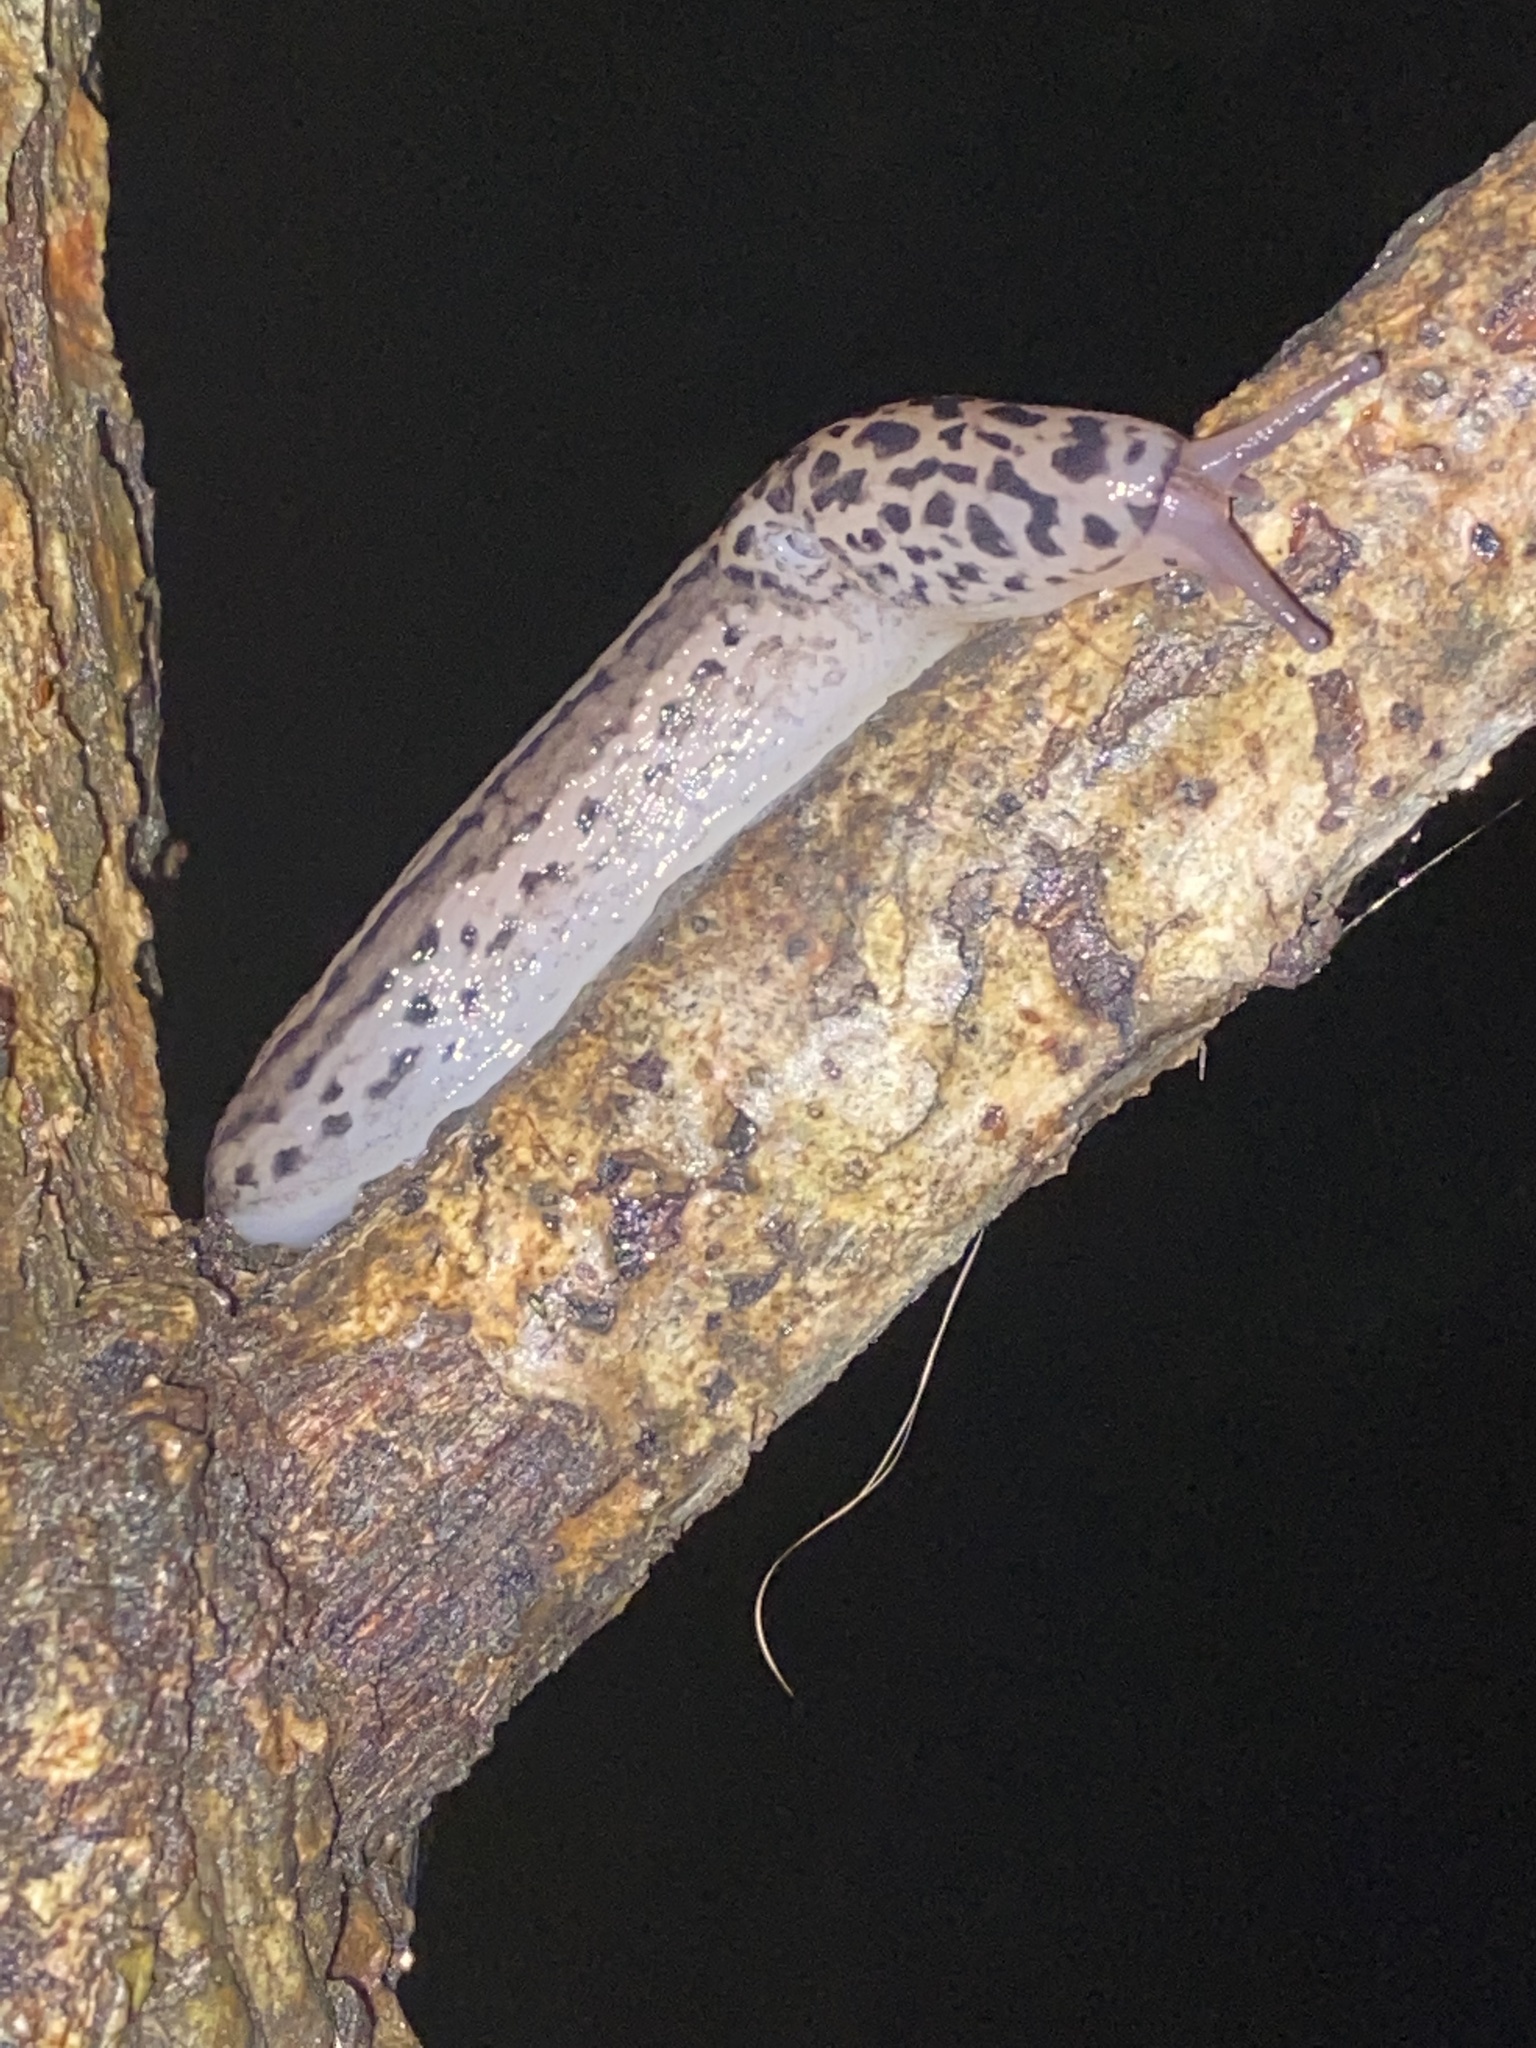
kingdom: Animalia
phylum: Mollusca
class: Gastropoda
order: Stylommatophora
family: Limacidae
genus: Limax
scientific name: Limax maximus
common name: Great grey slug
